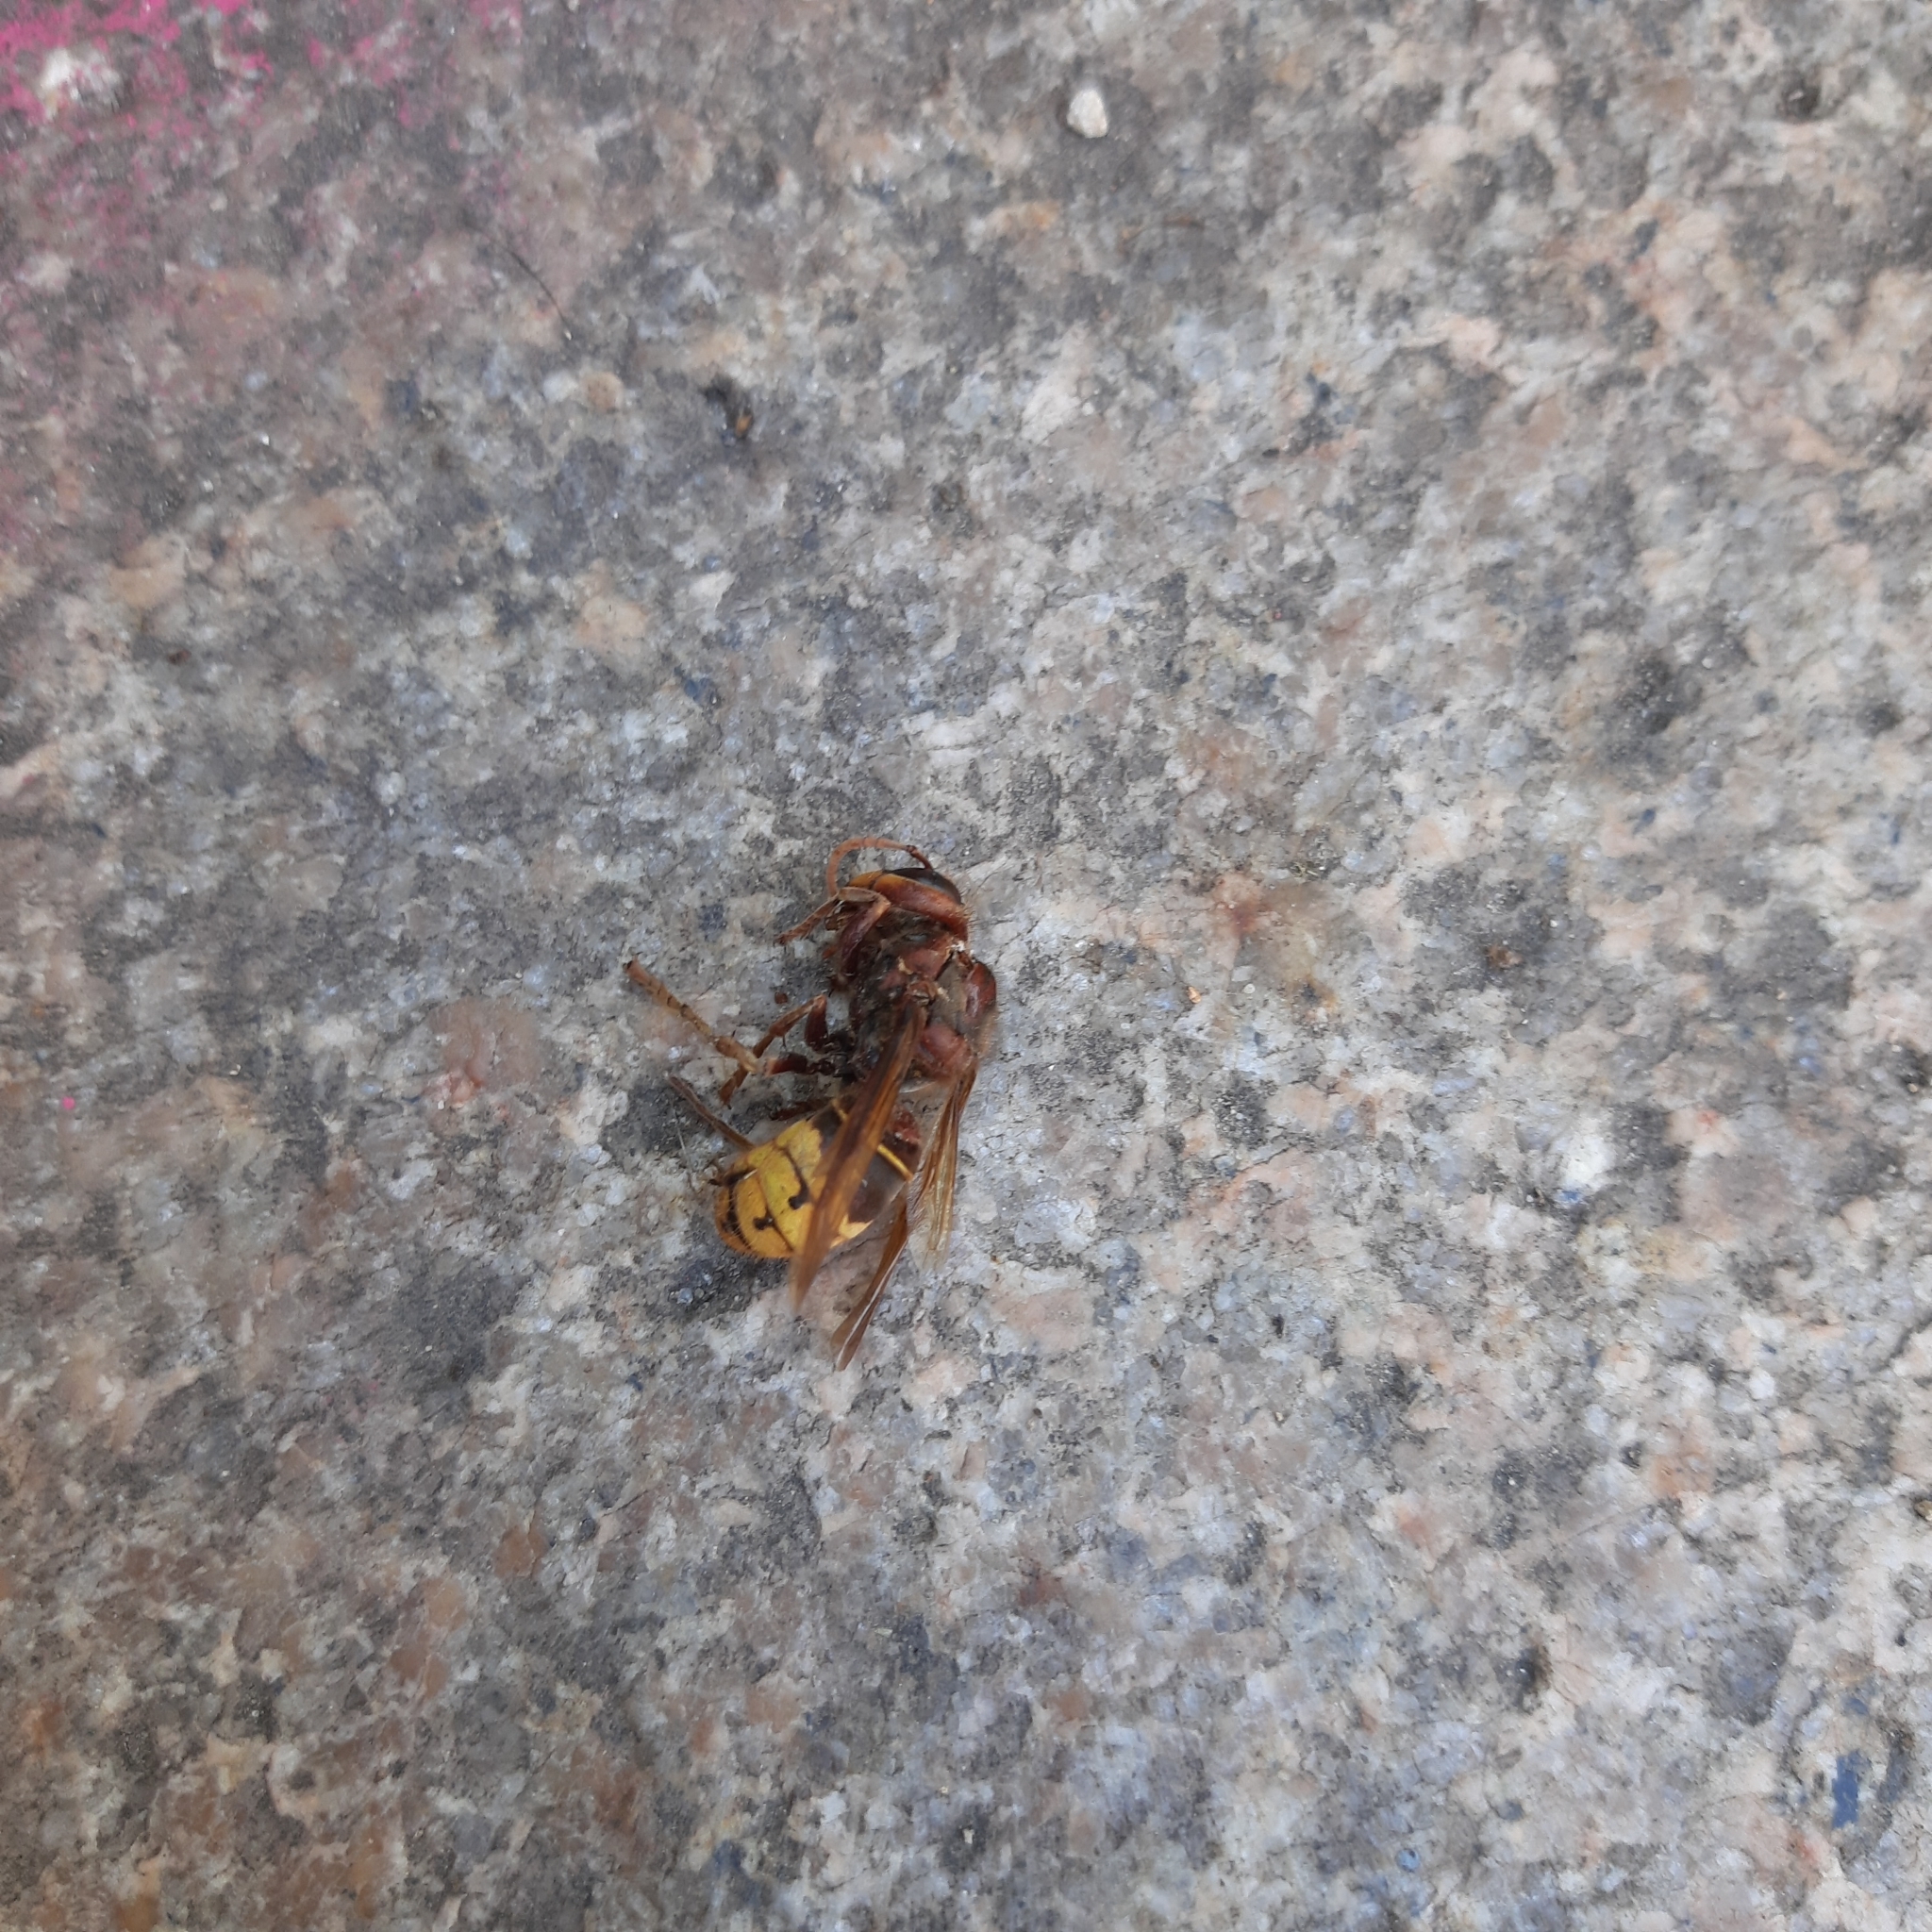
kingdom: Animalia
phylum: Arthropoda
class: Insecta
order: Hymenoptera
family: Vespidae
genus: Vespa
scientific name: Vespa crabro
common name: Hornet
